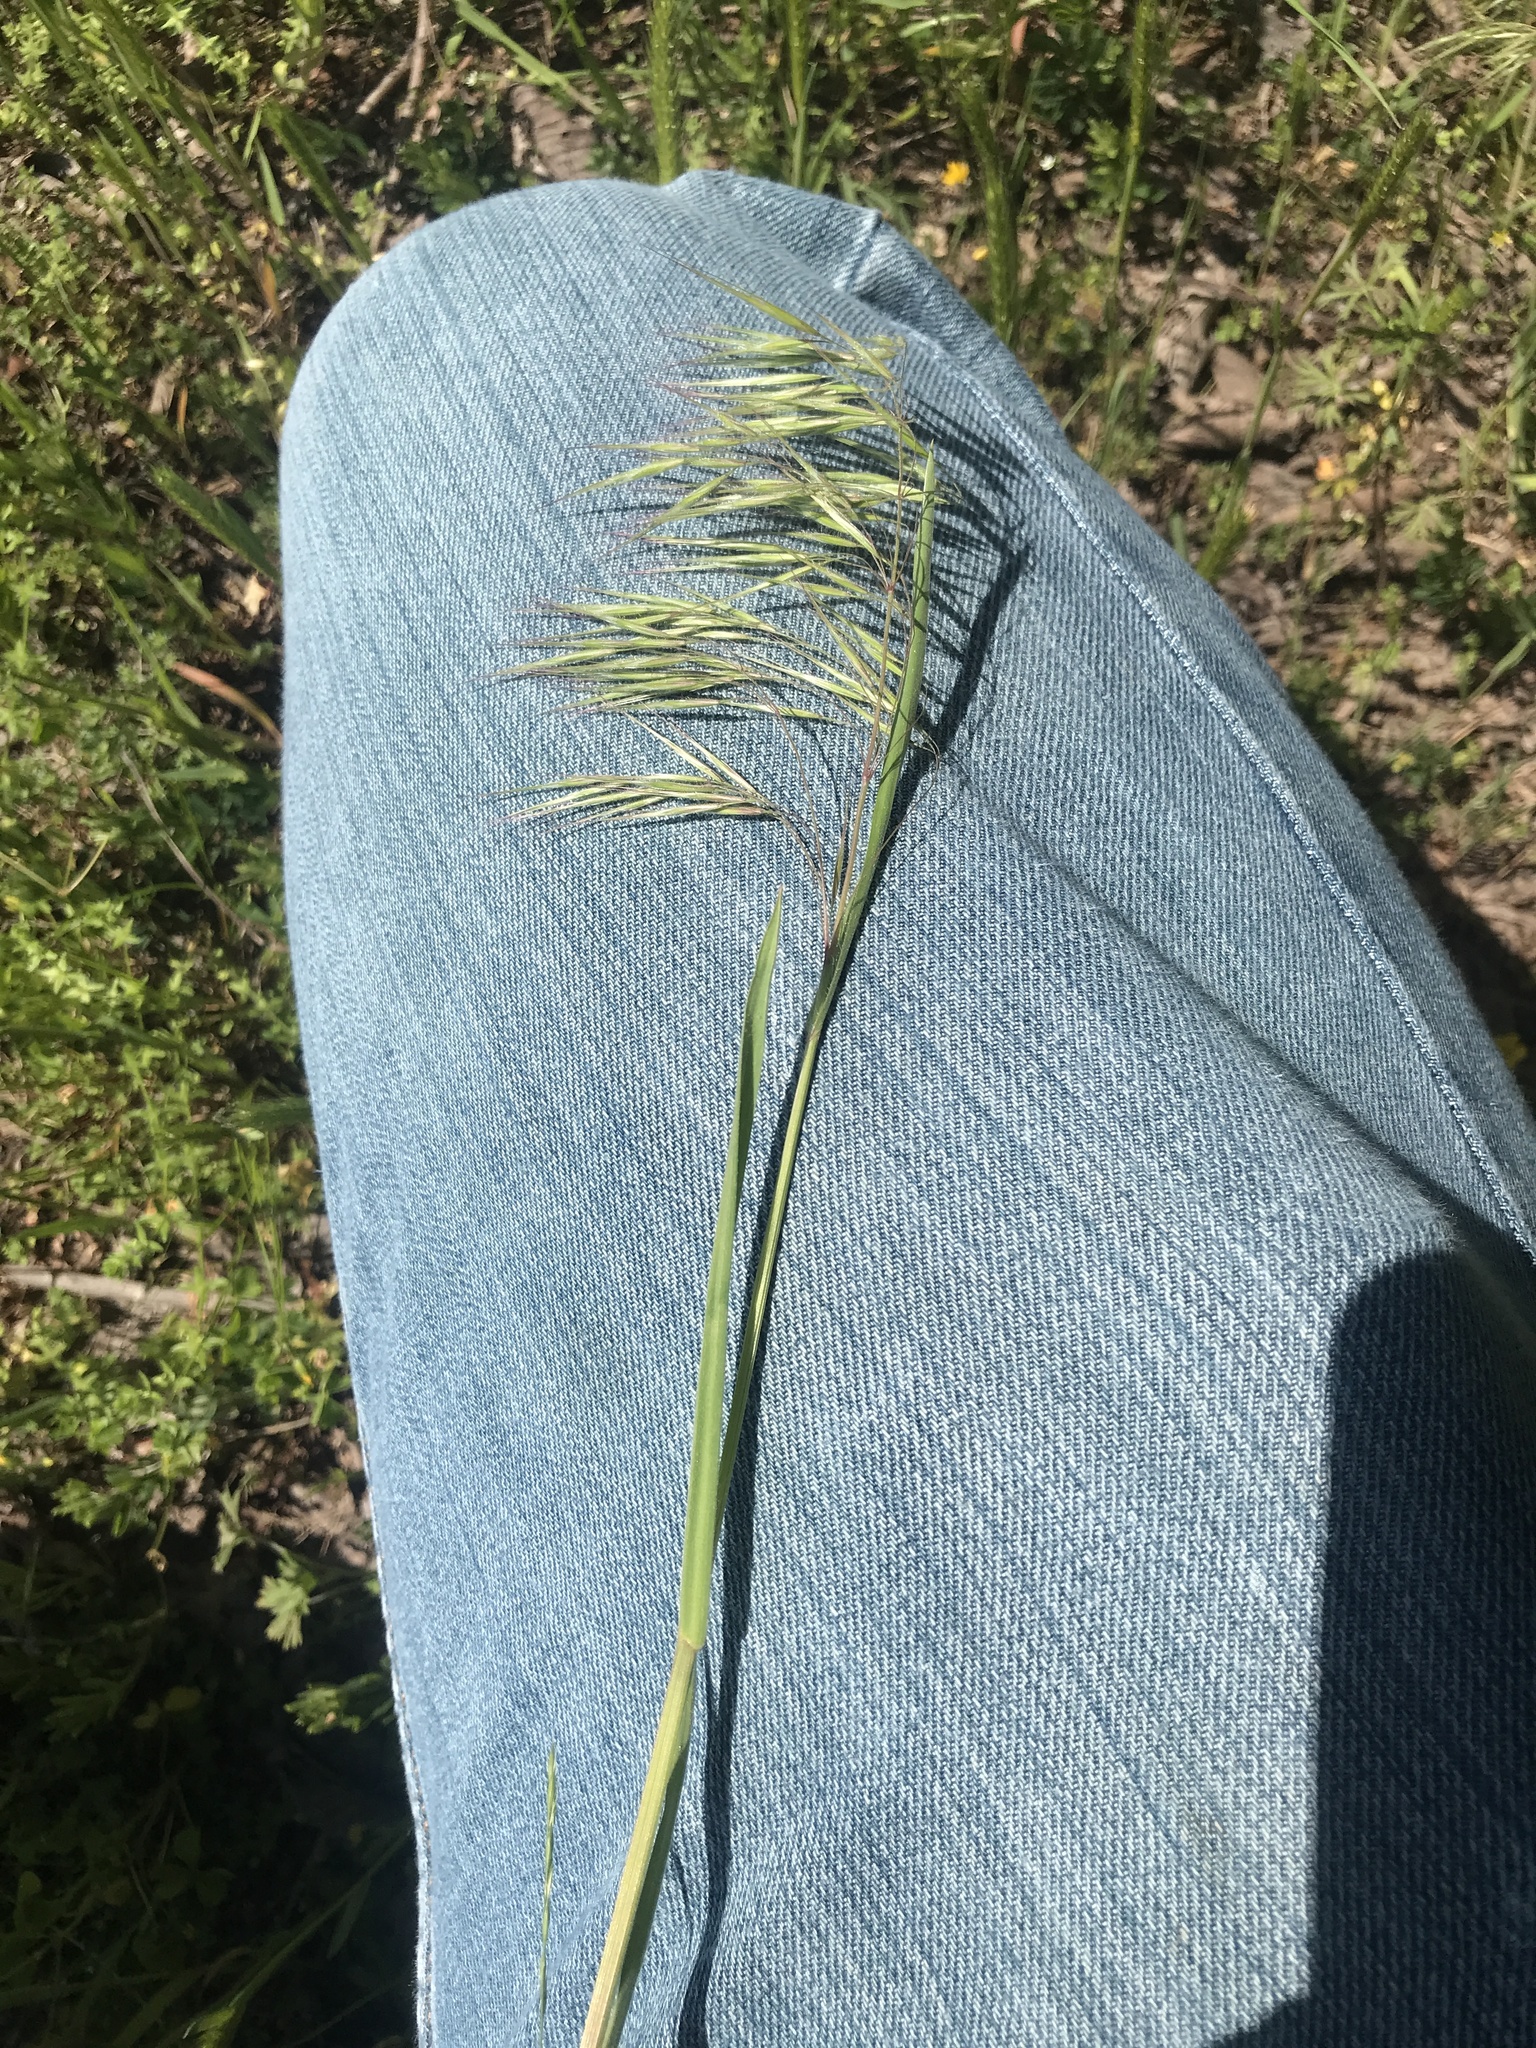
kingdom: Plantae
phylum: Tracheophyta
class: Liliopsida
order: Poales
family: Poaceae
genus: Bromus
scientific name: Bromus tectorum
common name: Cheatgrass
